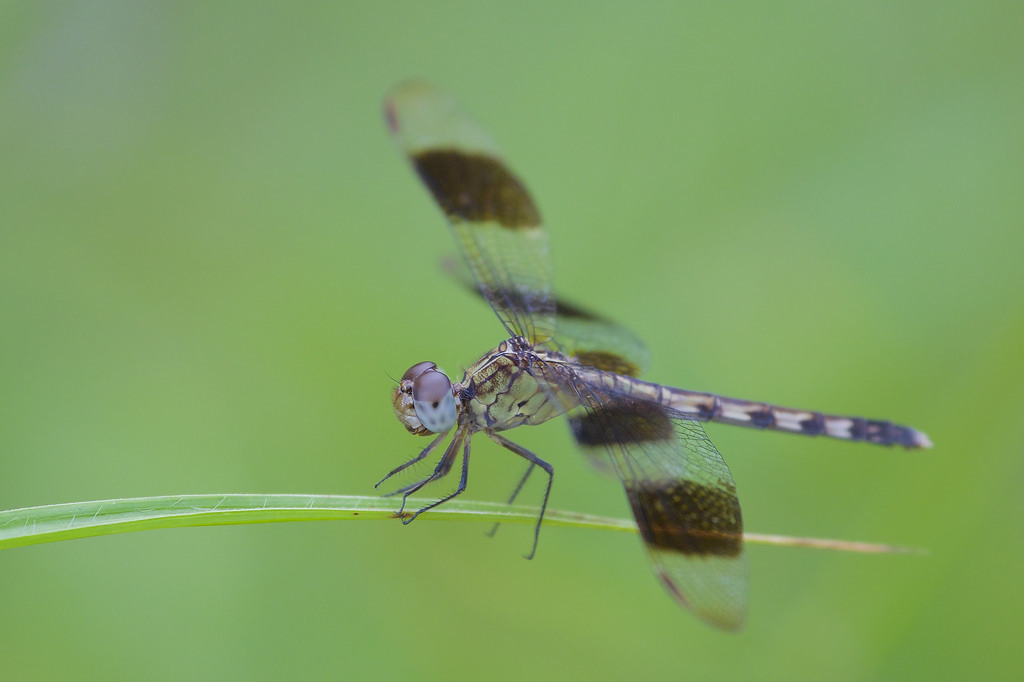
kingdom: Animalia
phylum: Arthropoda
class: Insecta
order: Odonata
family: Libellulidae
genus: Erythrodiplax
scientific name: Erythrodiplax umbrata
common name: Band-winged dragonlet
